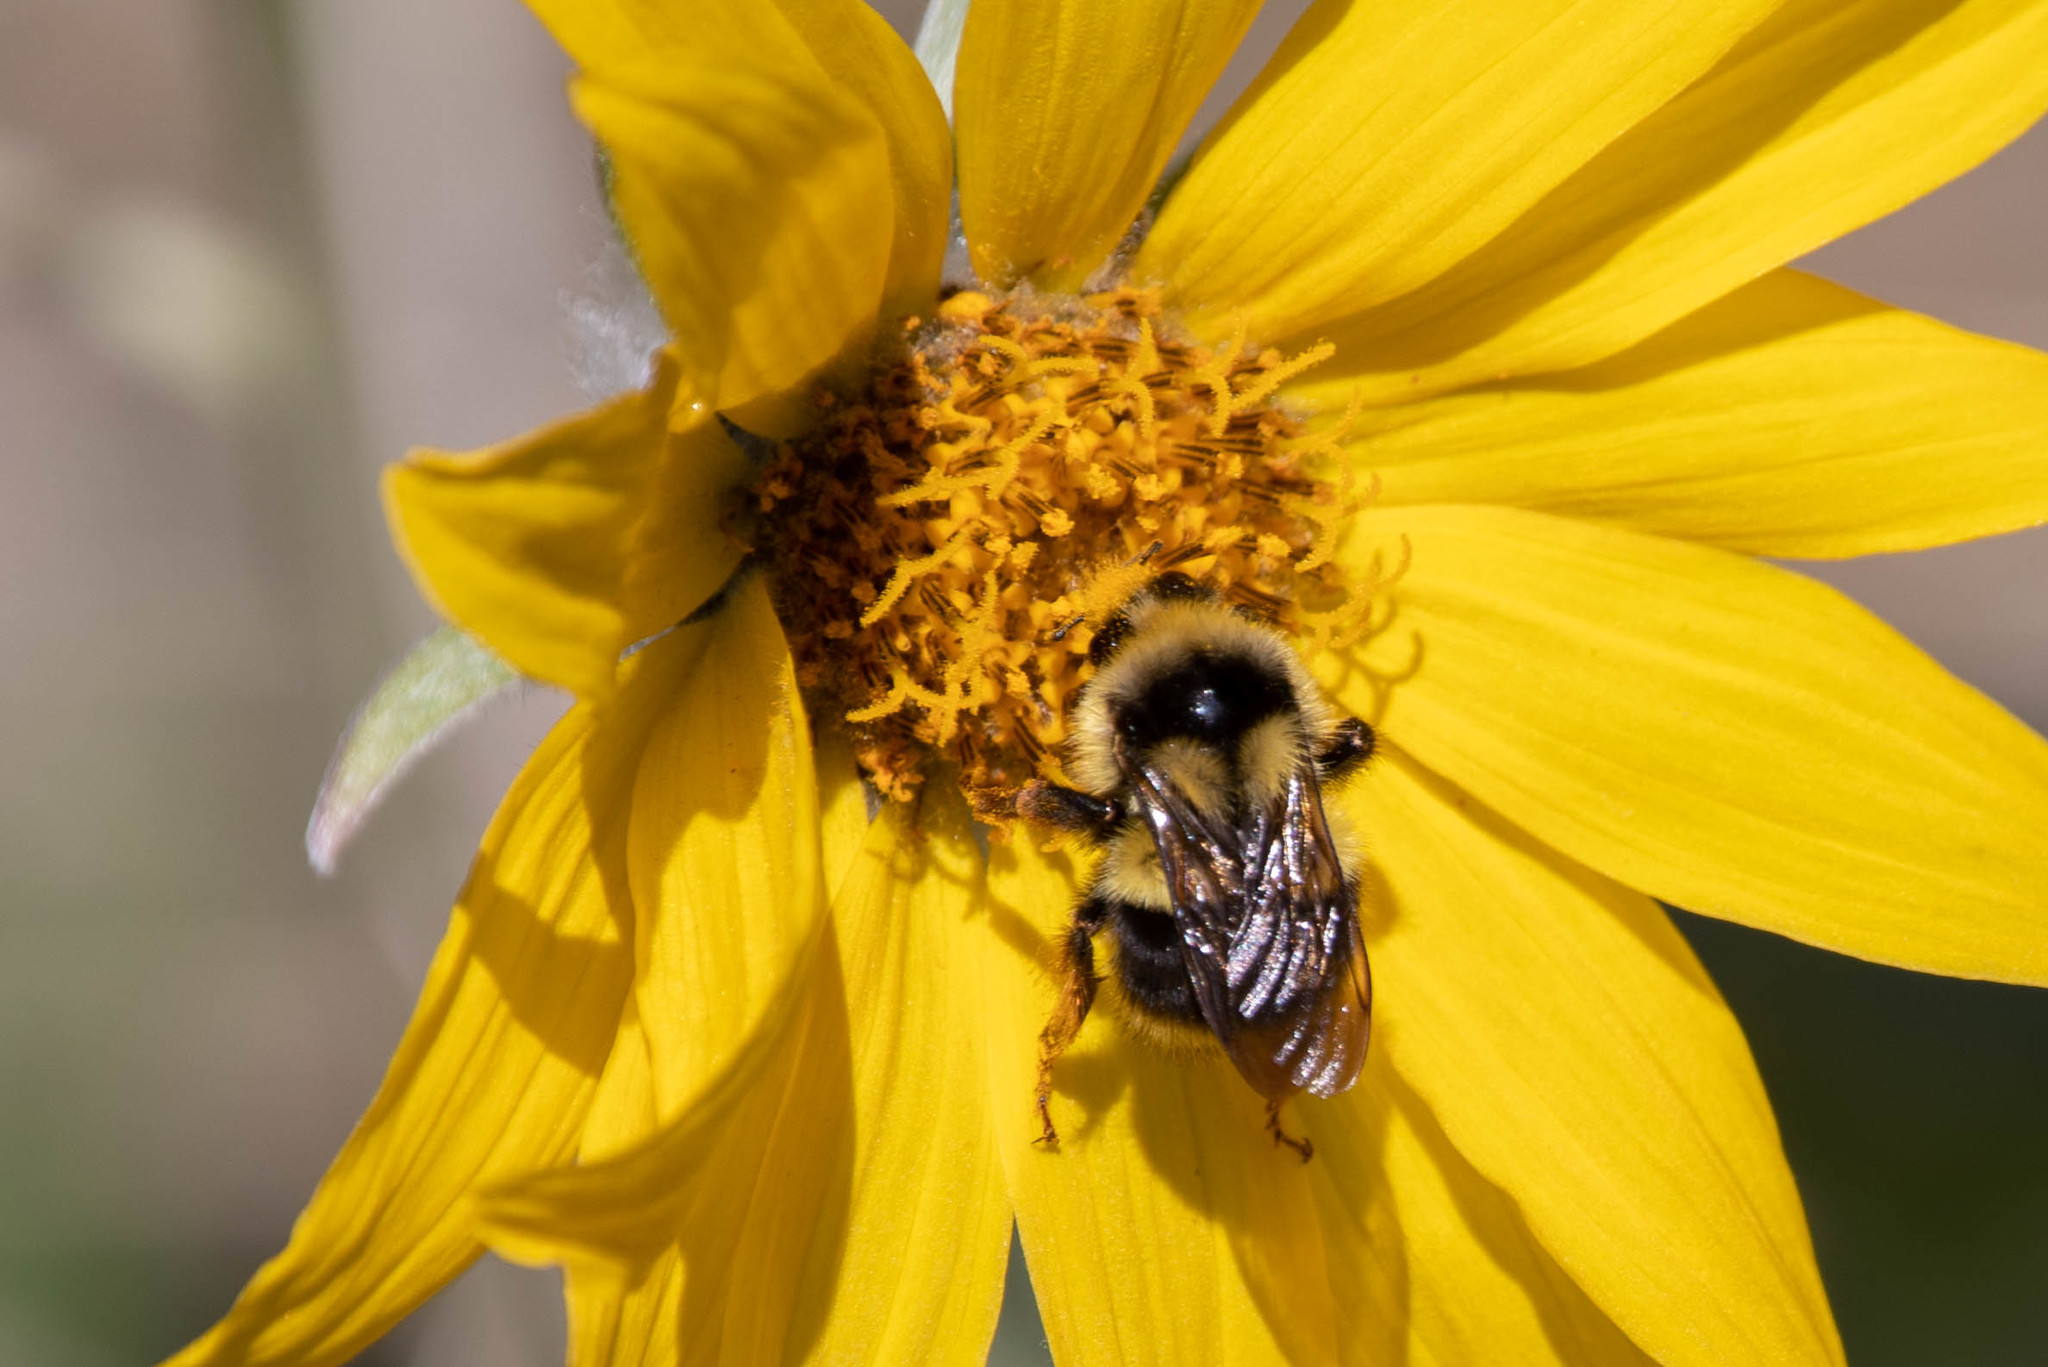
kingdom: Animalia
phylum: Arthropoda
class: Insecta
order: Hymenoptera
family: Apidae
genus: Bombus
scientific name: Bombus vancouverensis
